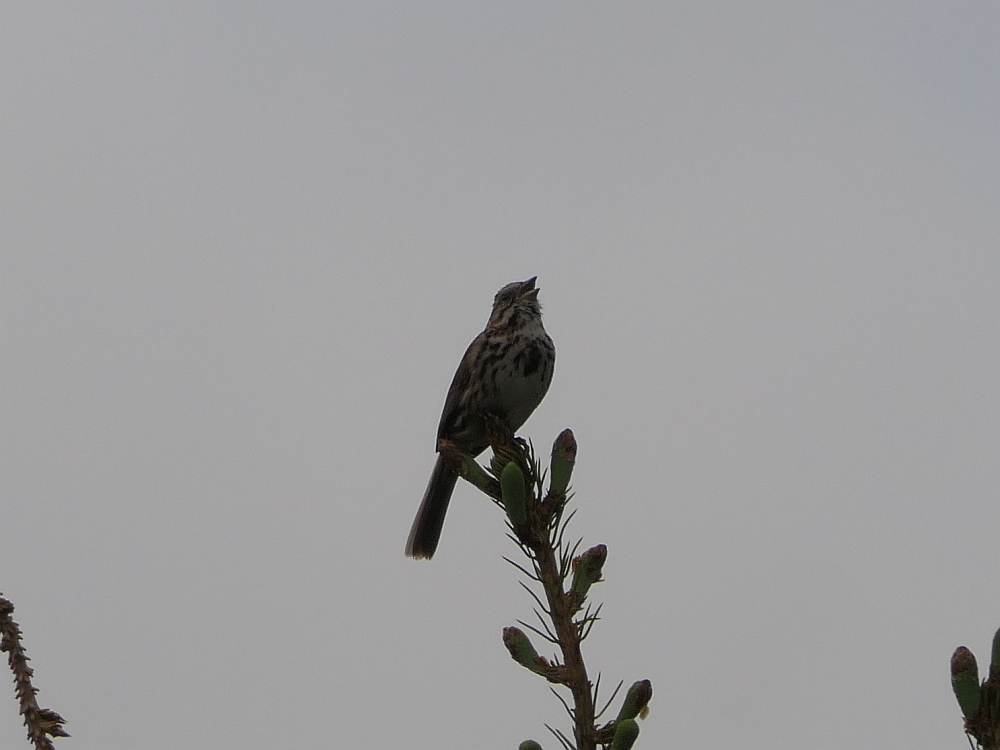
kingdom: Animalia
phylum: Chordata
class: Aves
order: Passeriformes
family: Passerellidae
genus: Melospiza
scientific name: Melospiza melodia
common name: Song sparrow
